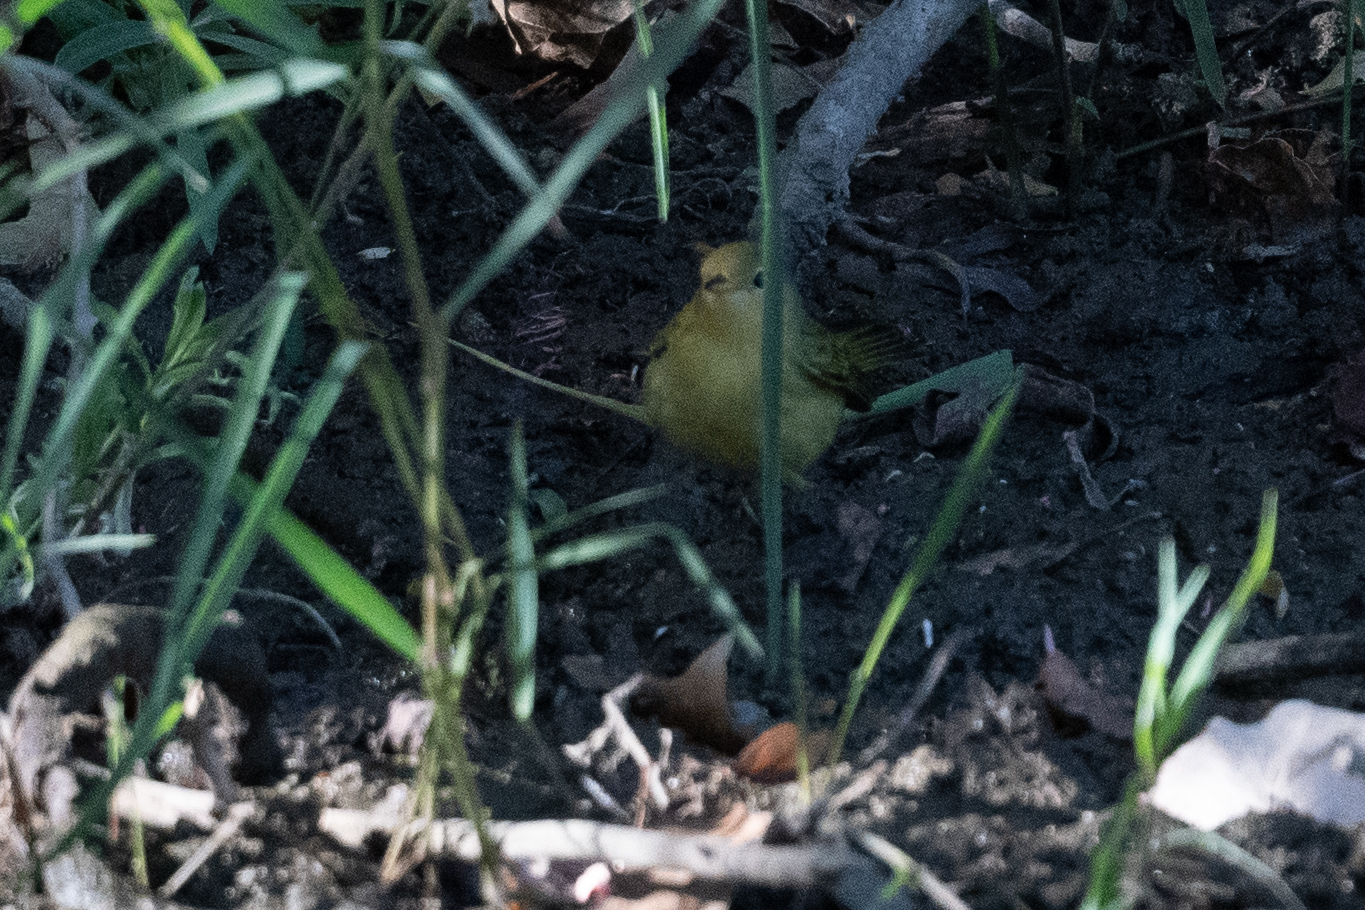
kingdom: Animalia
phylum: Chordata
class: Aves
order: Passeriformes
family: Parulidae
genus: Setophaga
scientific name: Setophaga petechia
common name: Yellow warbler
